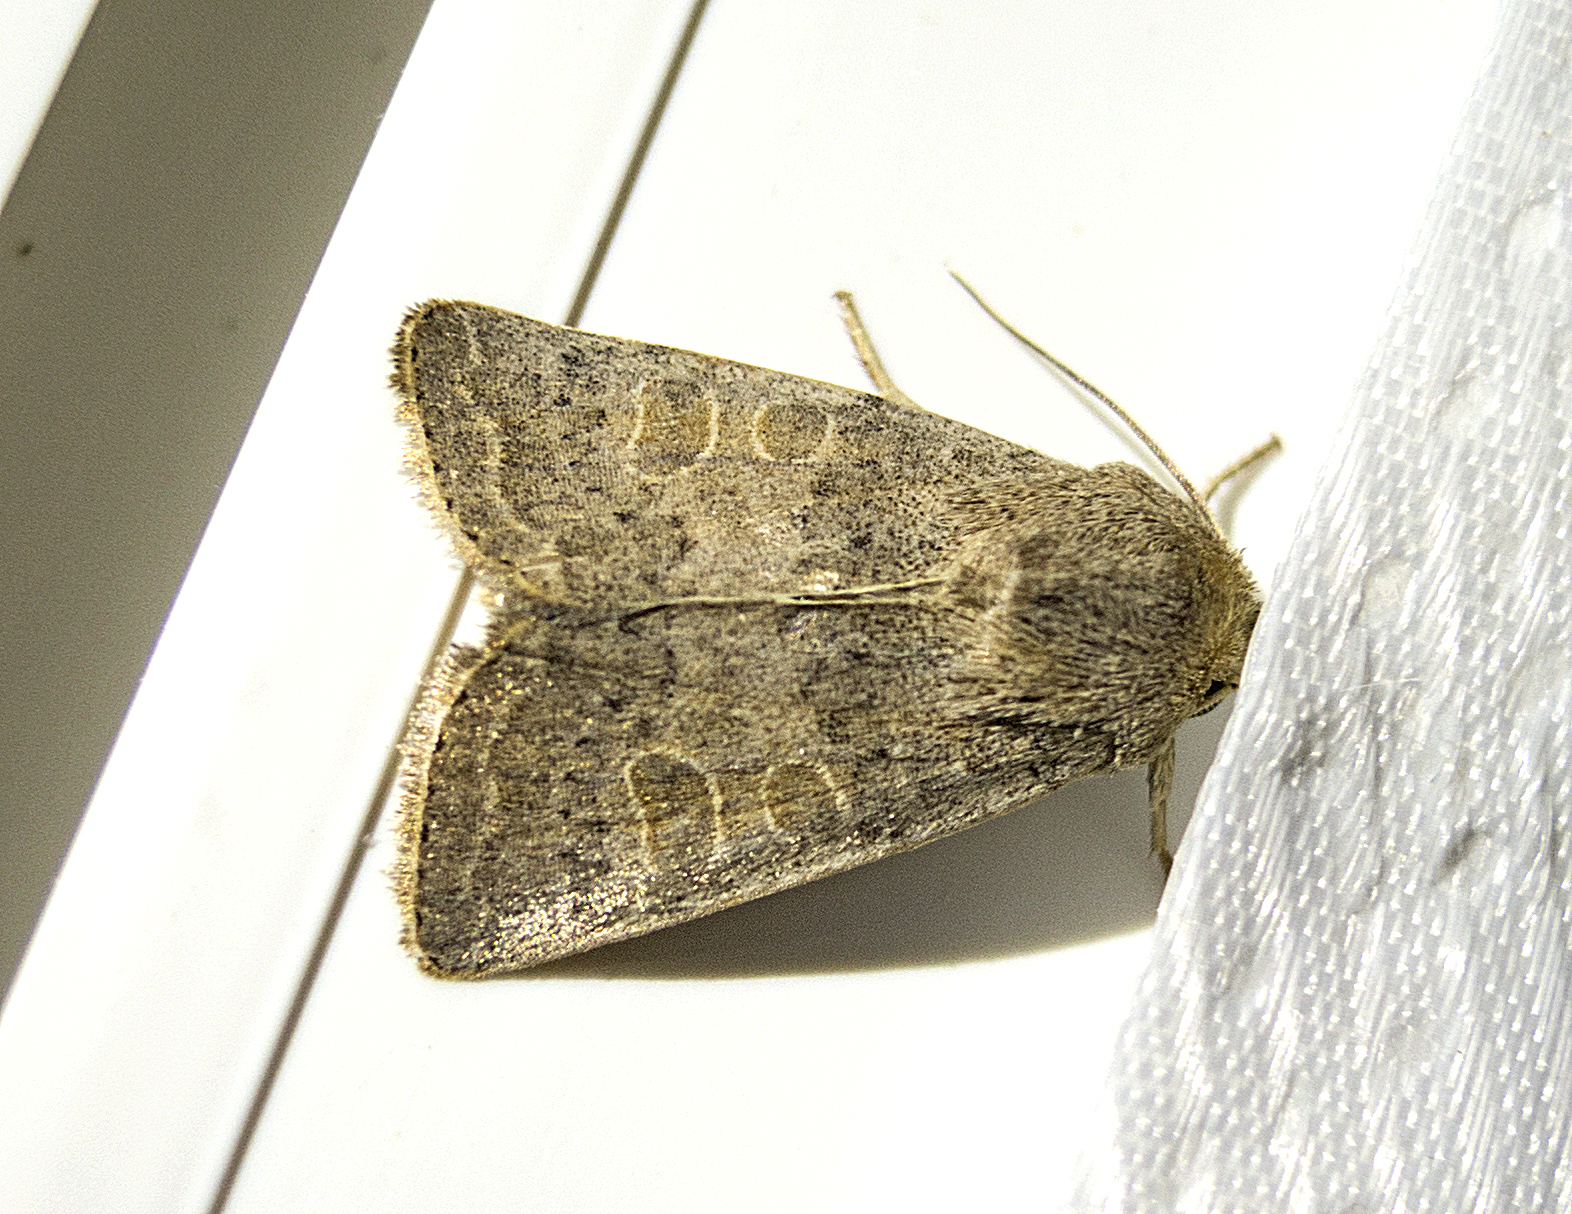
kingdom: Animalia
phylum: Arthropoda
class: Insecta
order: Lepidoptera
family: Noctuidae
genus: Hoplodrina
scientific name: Hoplodrina ambigua
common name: Vine's rustic
